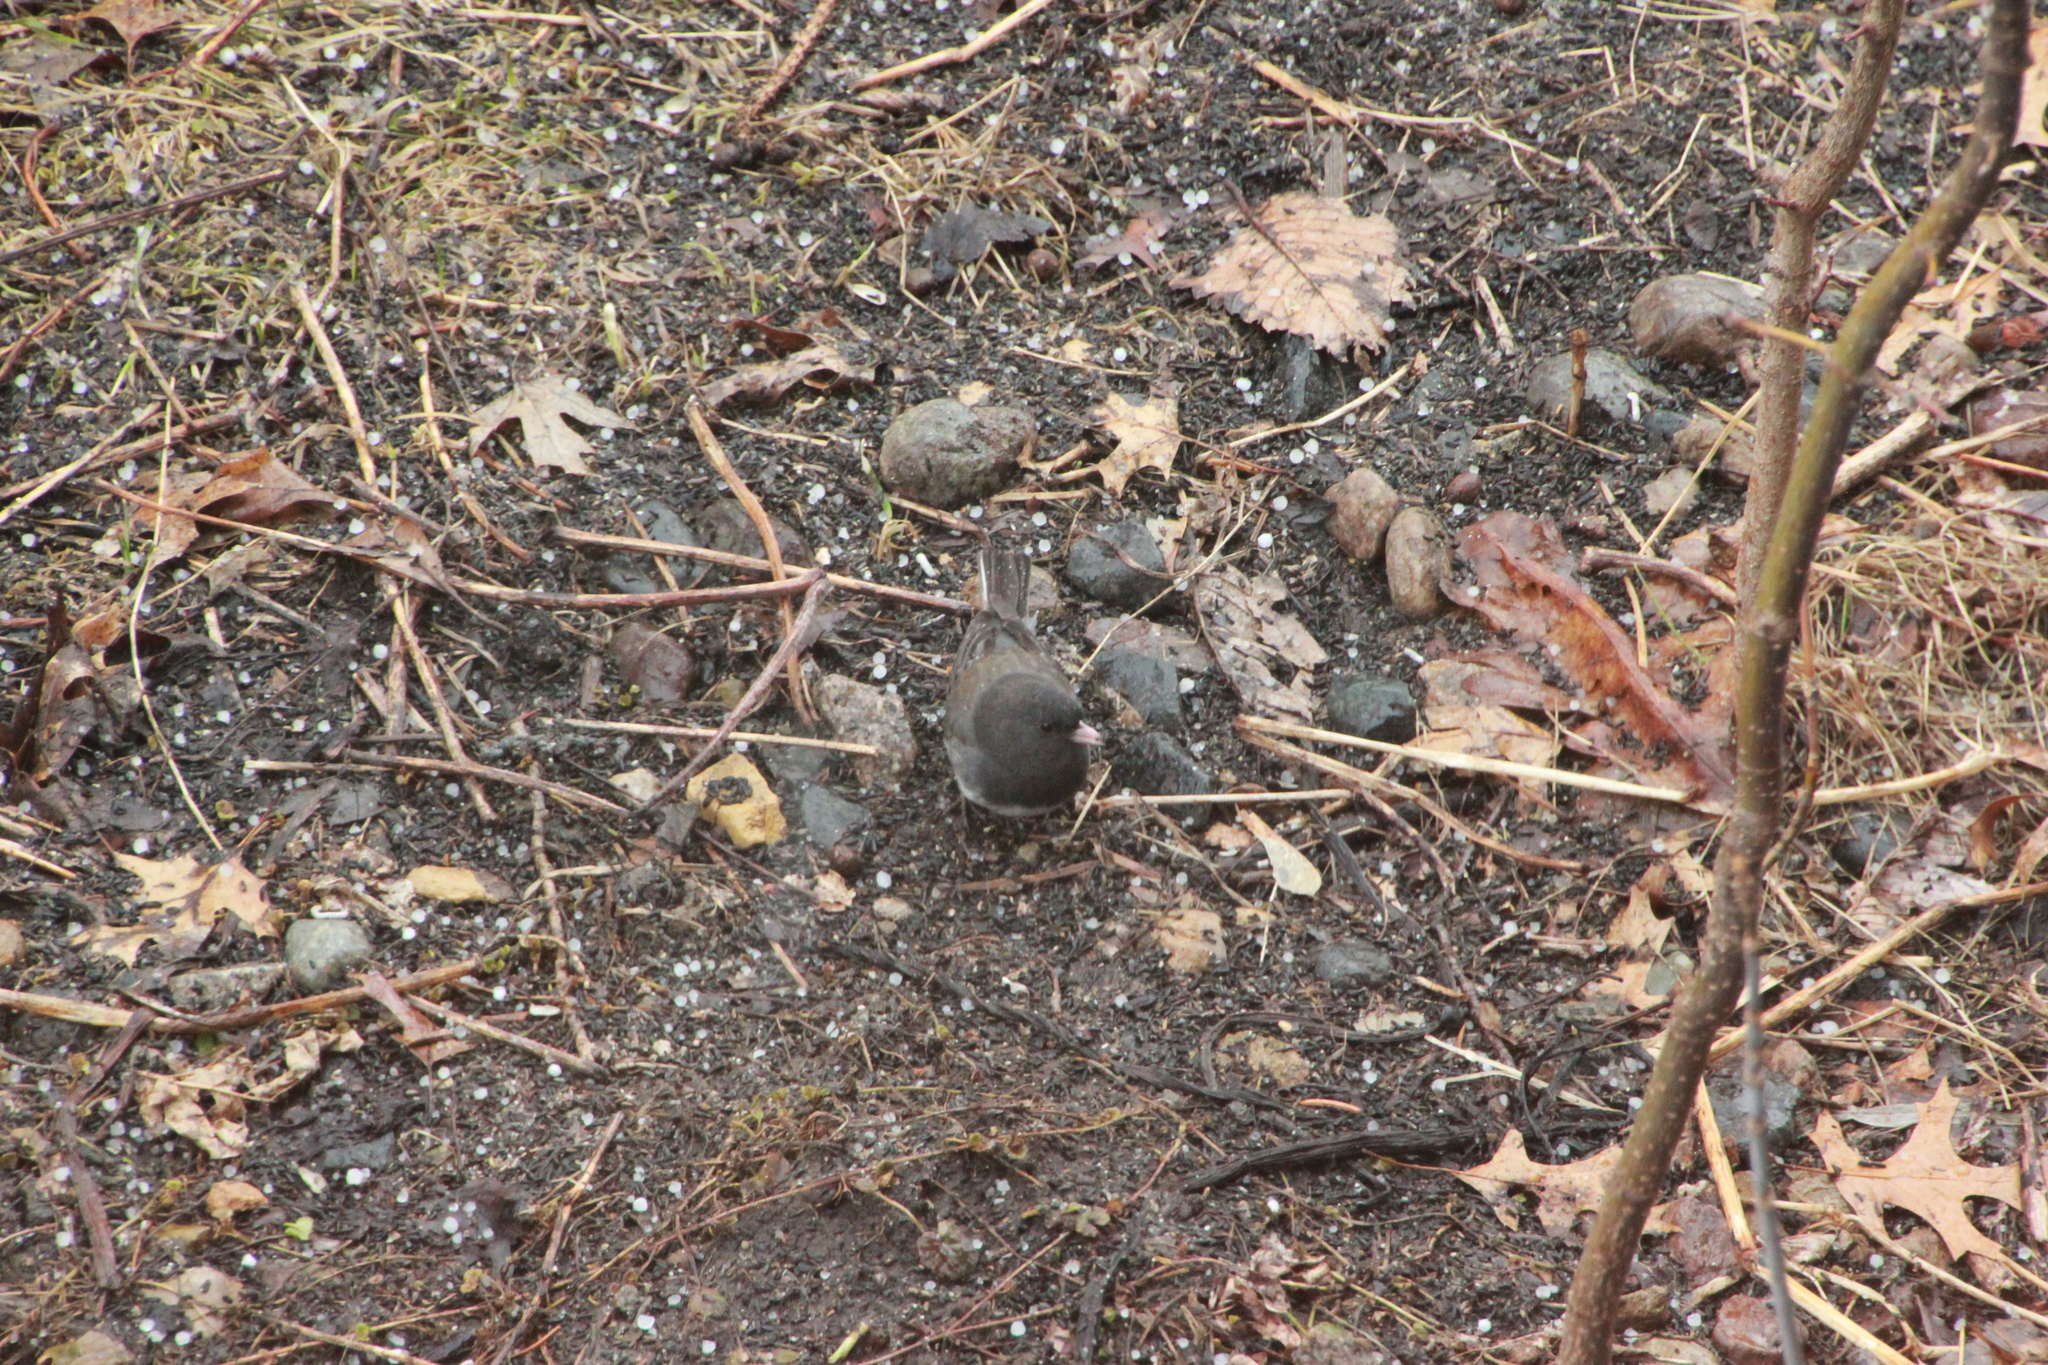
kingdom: Animalia
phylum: Chordata
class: Aves
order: Passeriformes
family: Passerellidae
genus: Junco
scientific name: Junco hyemalis
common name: Dark-eyed junco
